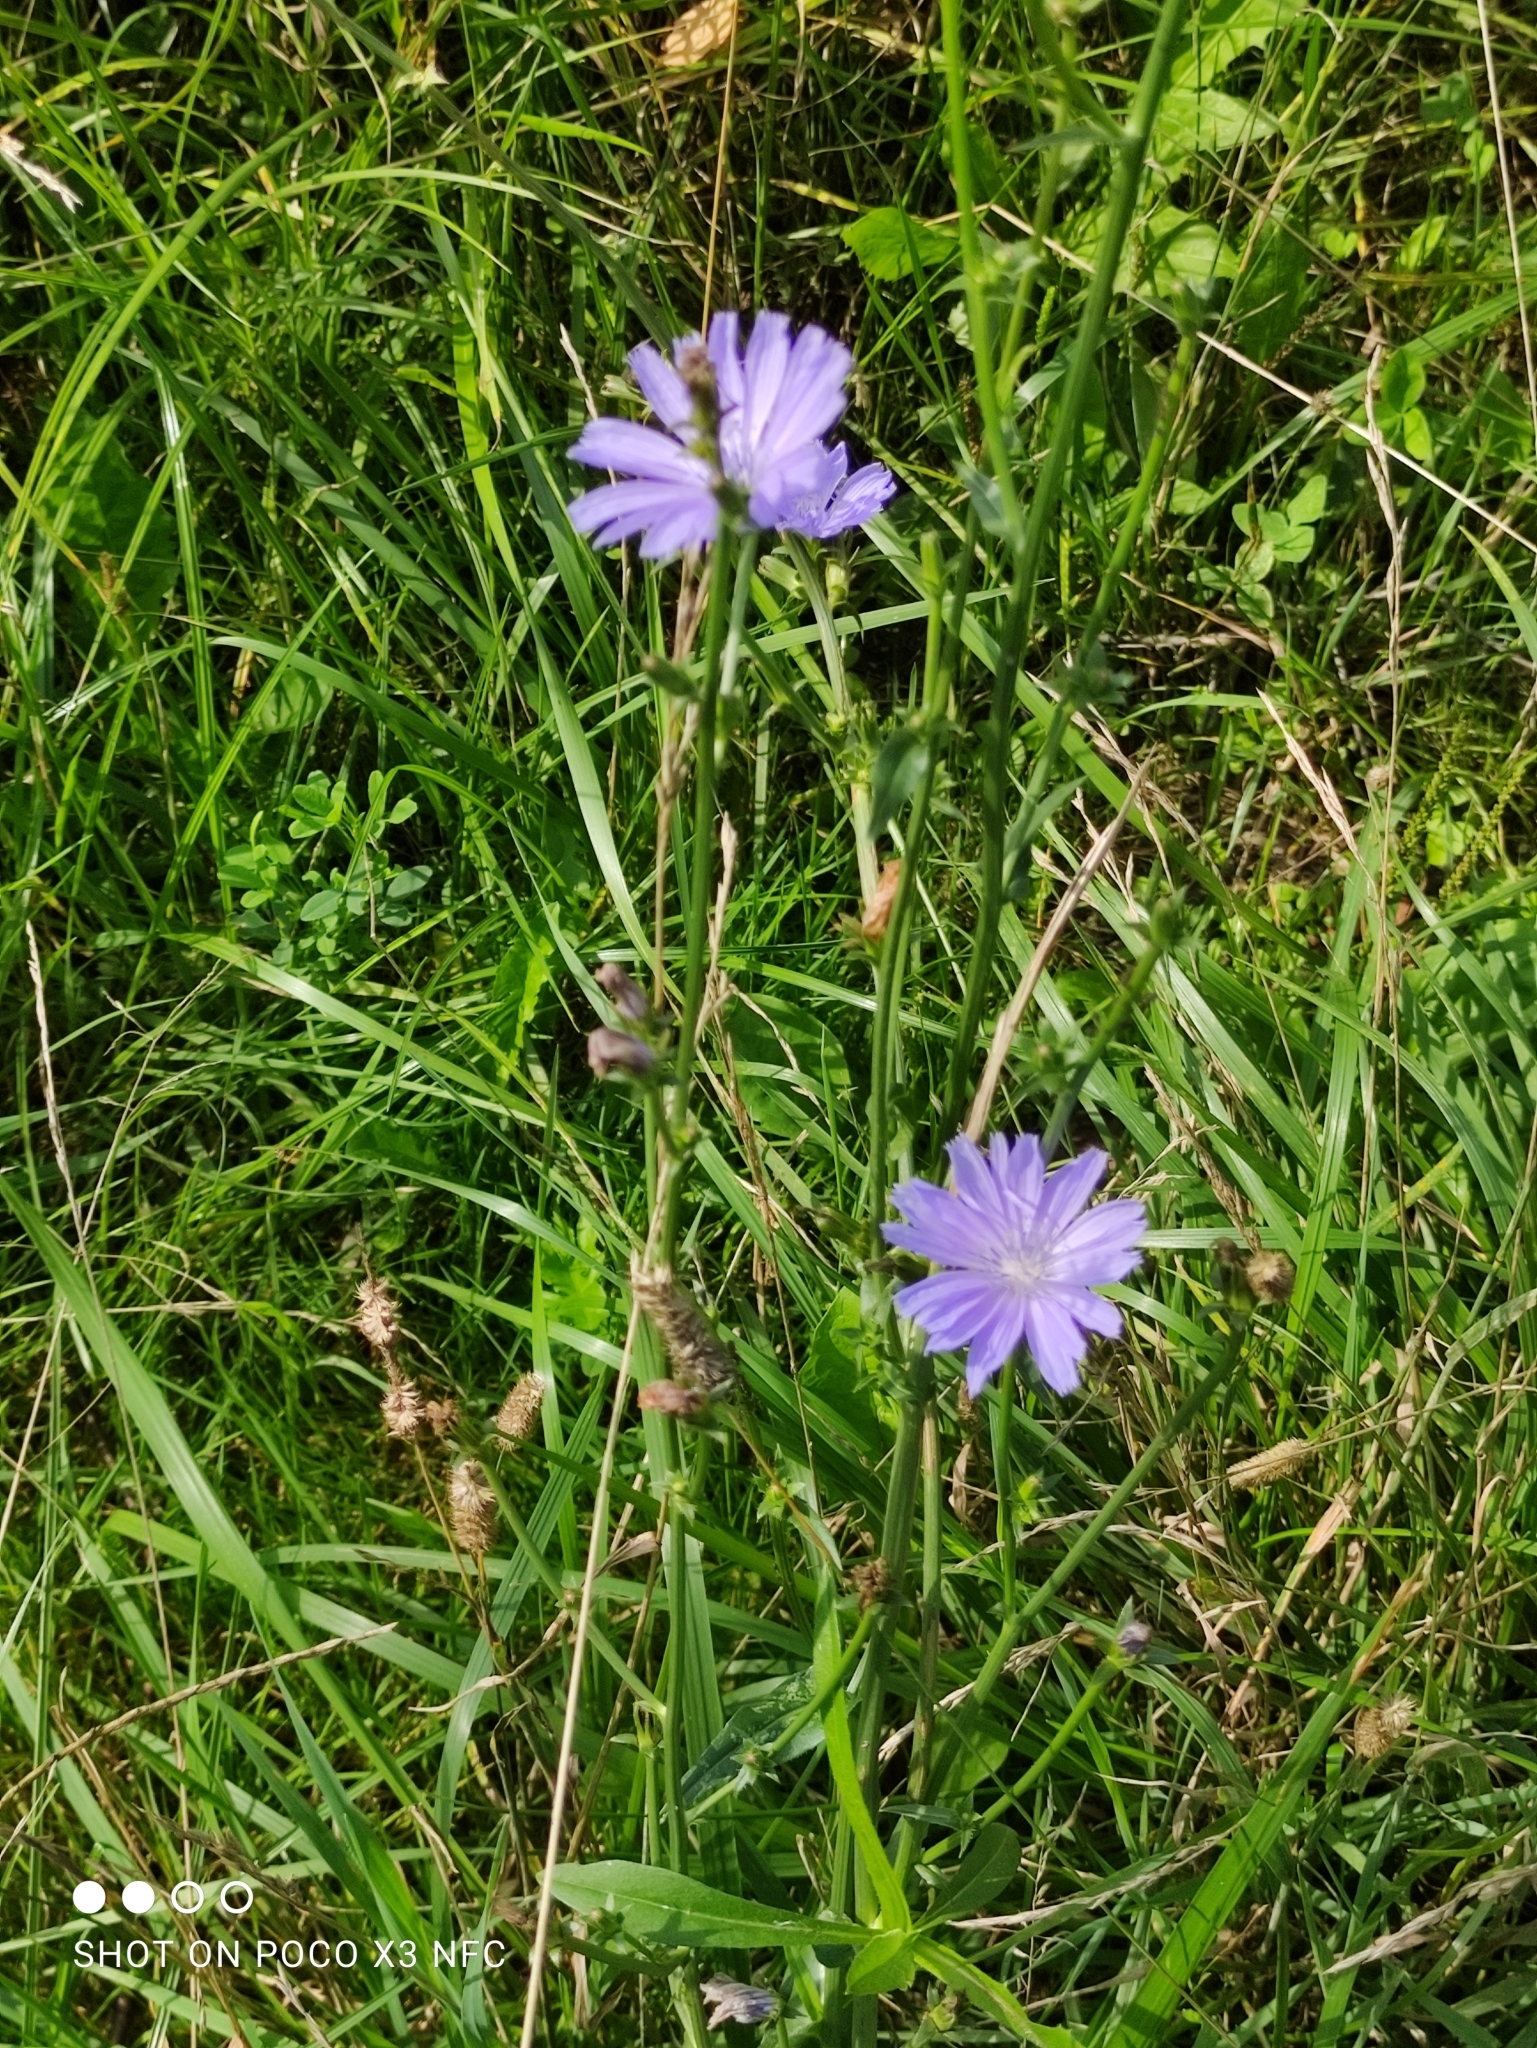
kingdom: Plantae
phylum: Tracheophyta
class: Magnoliopsida
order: Asterales
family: Asteraceae
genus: Cichorium
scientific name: Cichorium intybus
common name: Chicory
